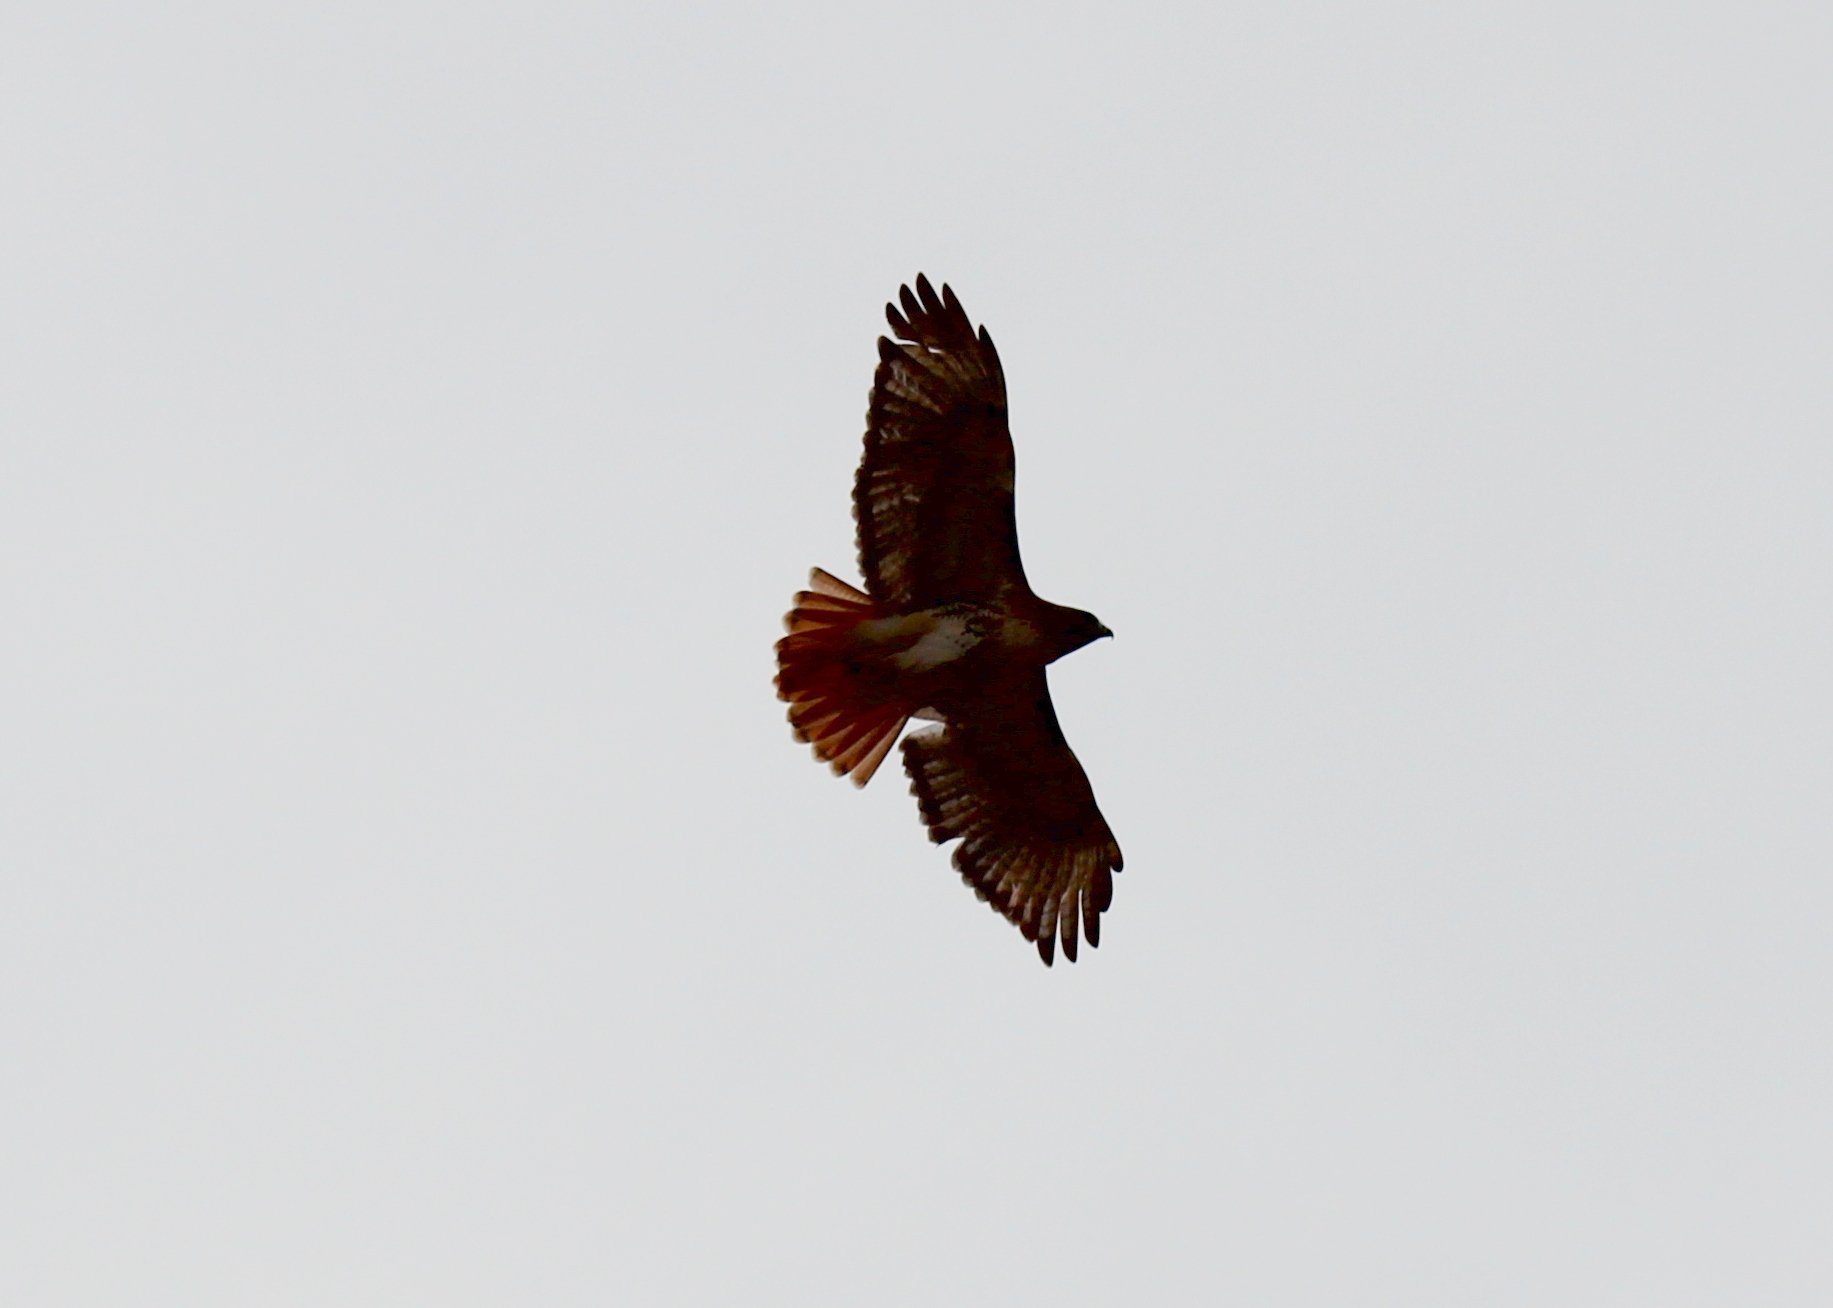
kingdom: Animalia
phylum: Chordata
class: Aves
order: Accipitriformes
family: Accipitridae
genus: Buteo
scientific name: Buteo jamaicensis
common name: Red-tailed hawk
